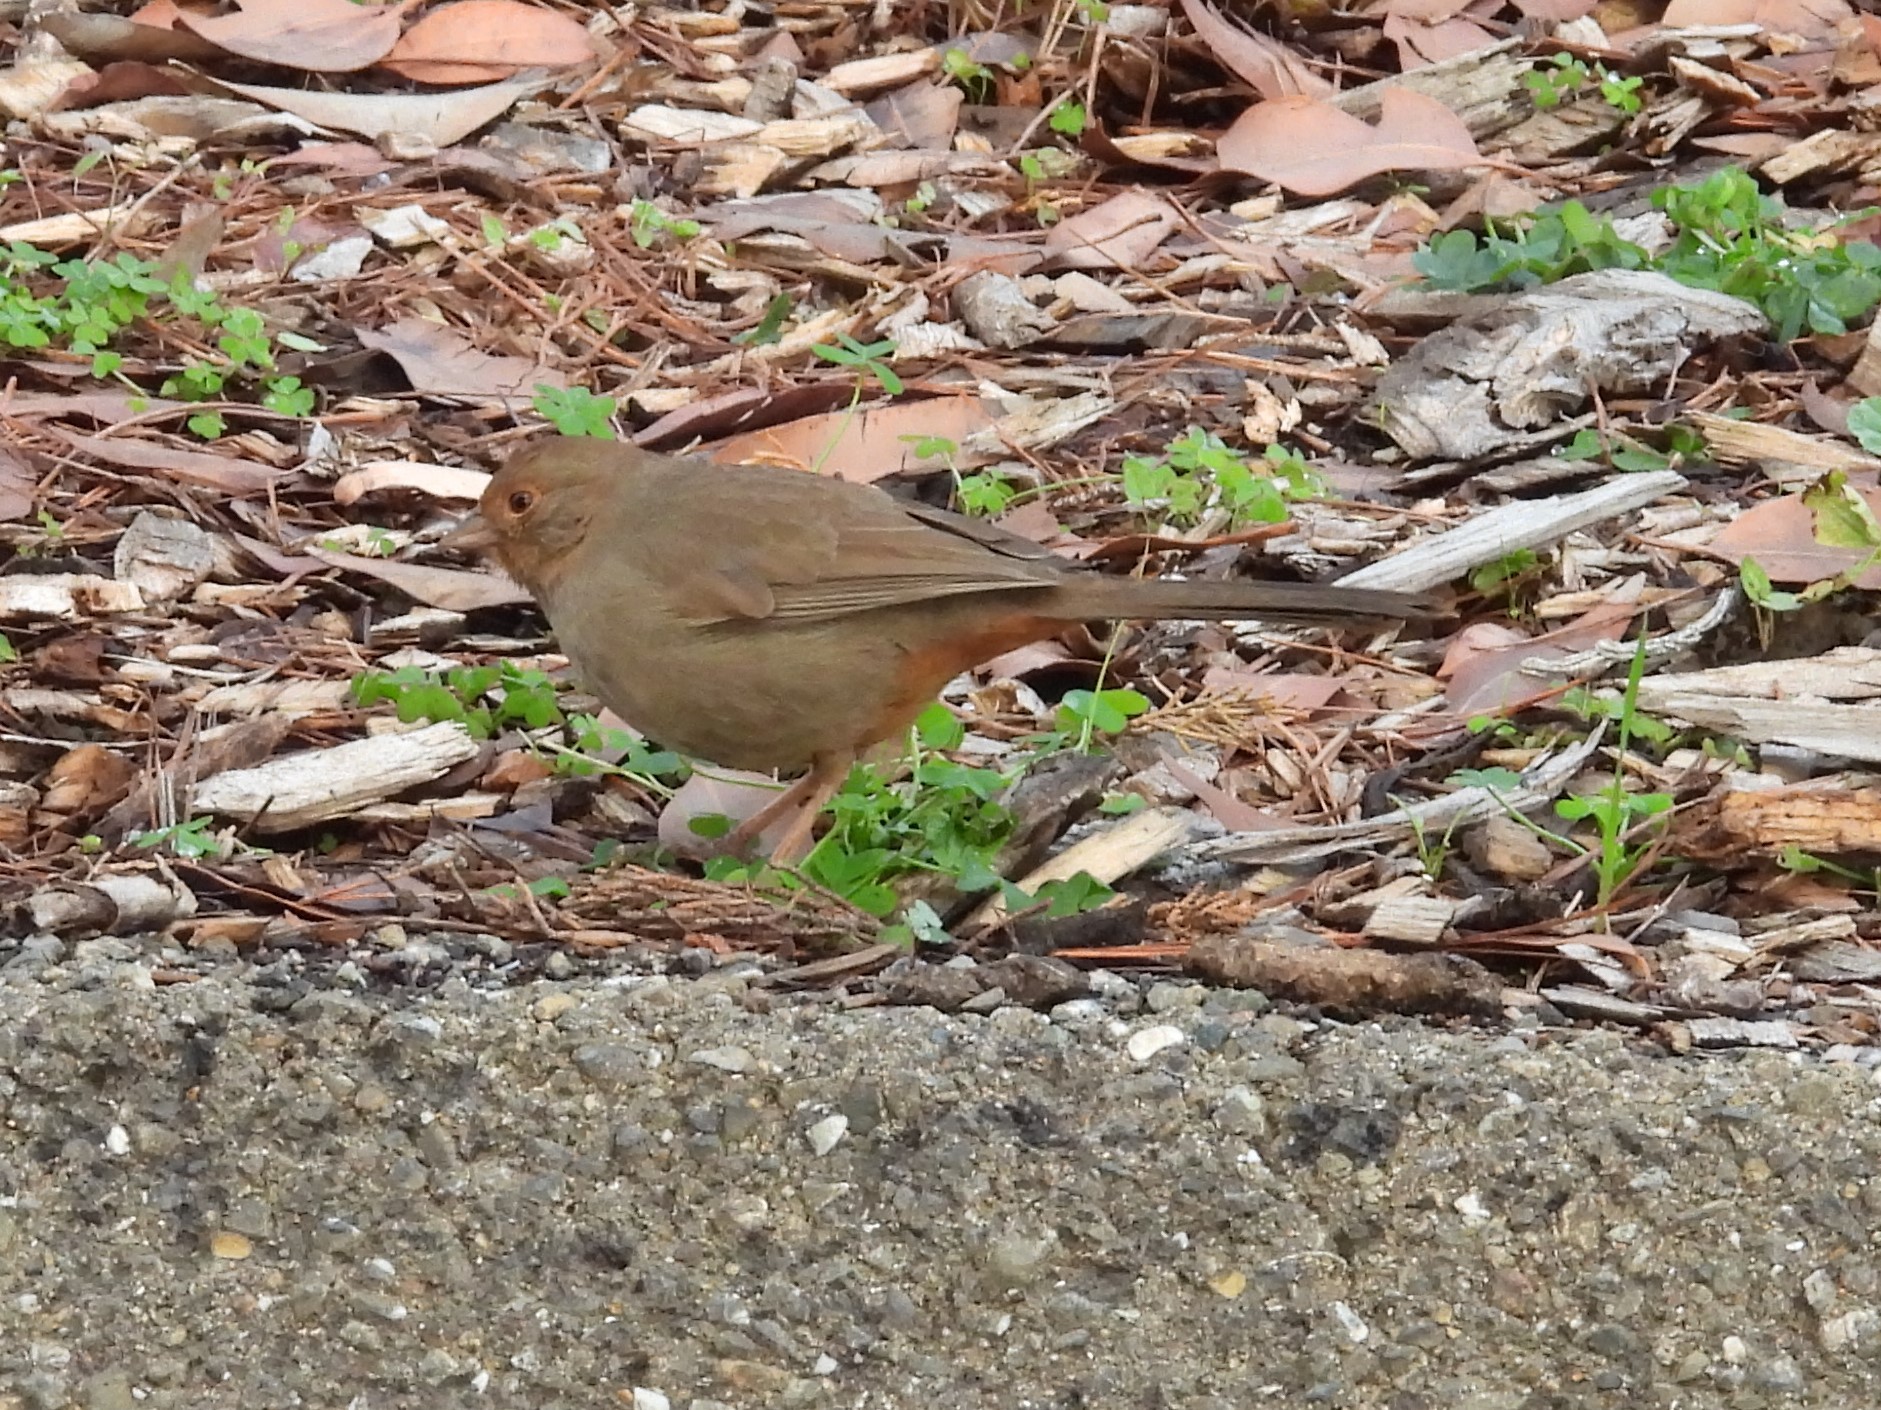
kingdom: Animalia
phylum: Chordata
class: Aves
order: Passeriformes
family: Passerellidae
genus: Melozone
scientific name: Melozone crissalis
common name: California towhee
